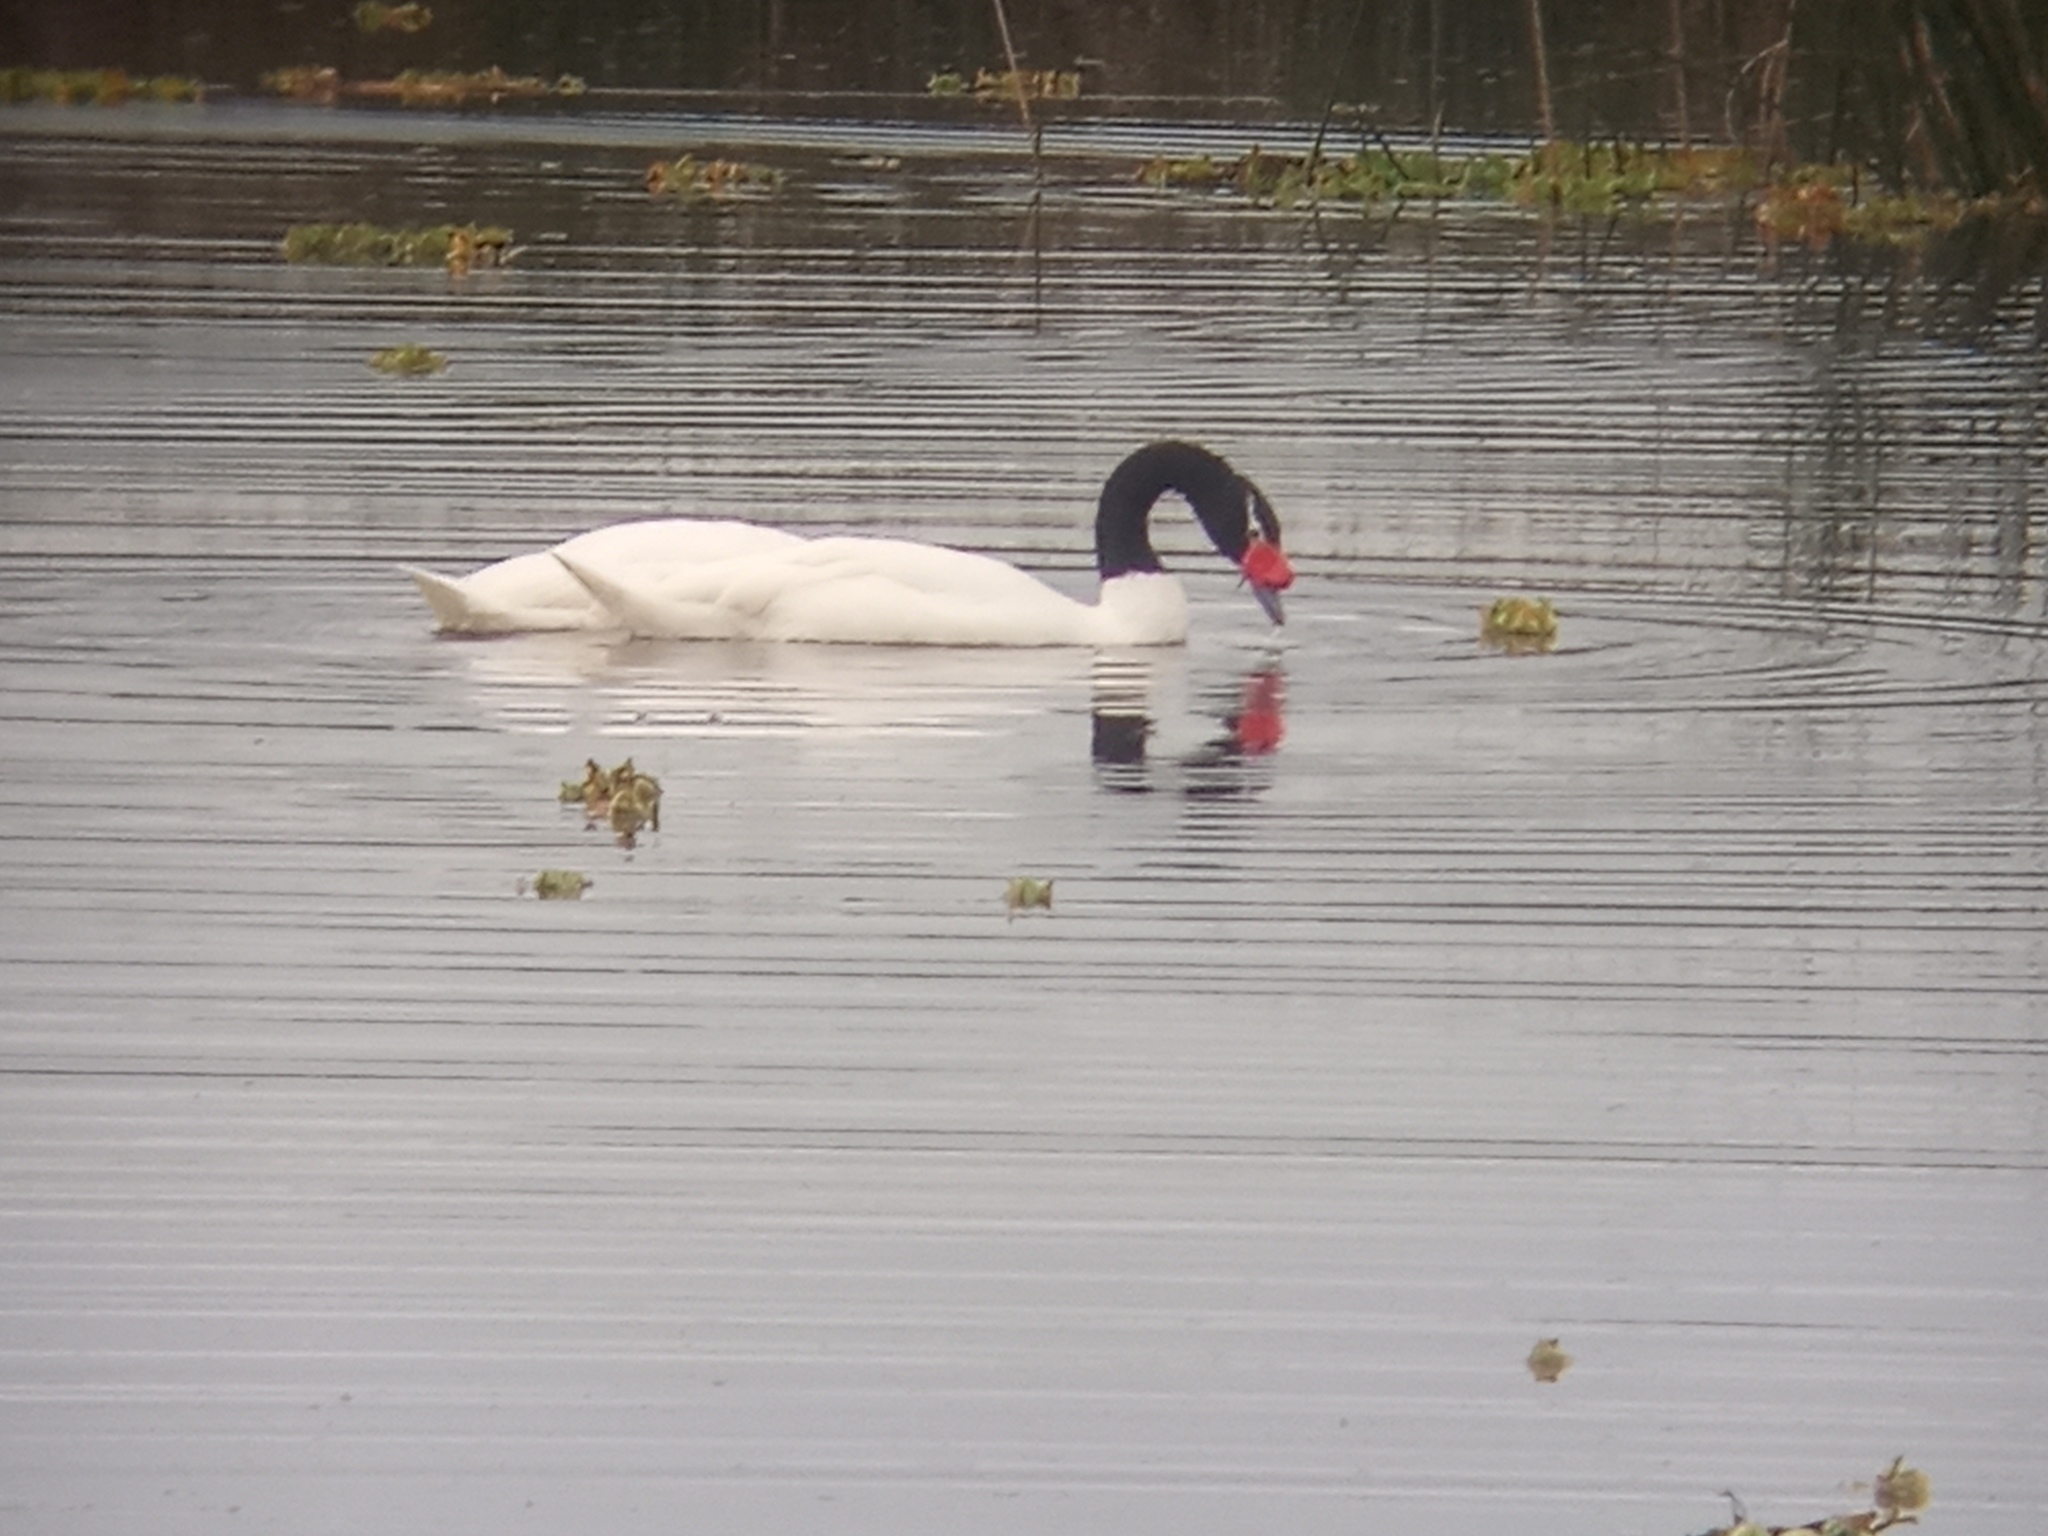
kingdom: Animalia
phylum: Chordata
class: Aves
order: Anseriformes
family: Anatidae
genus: Cygnus
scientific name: Cygnus melancoryphus
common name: Black-necked swan
